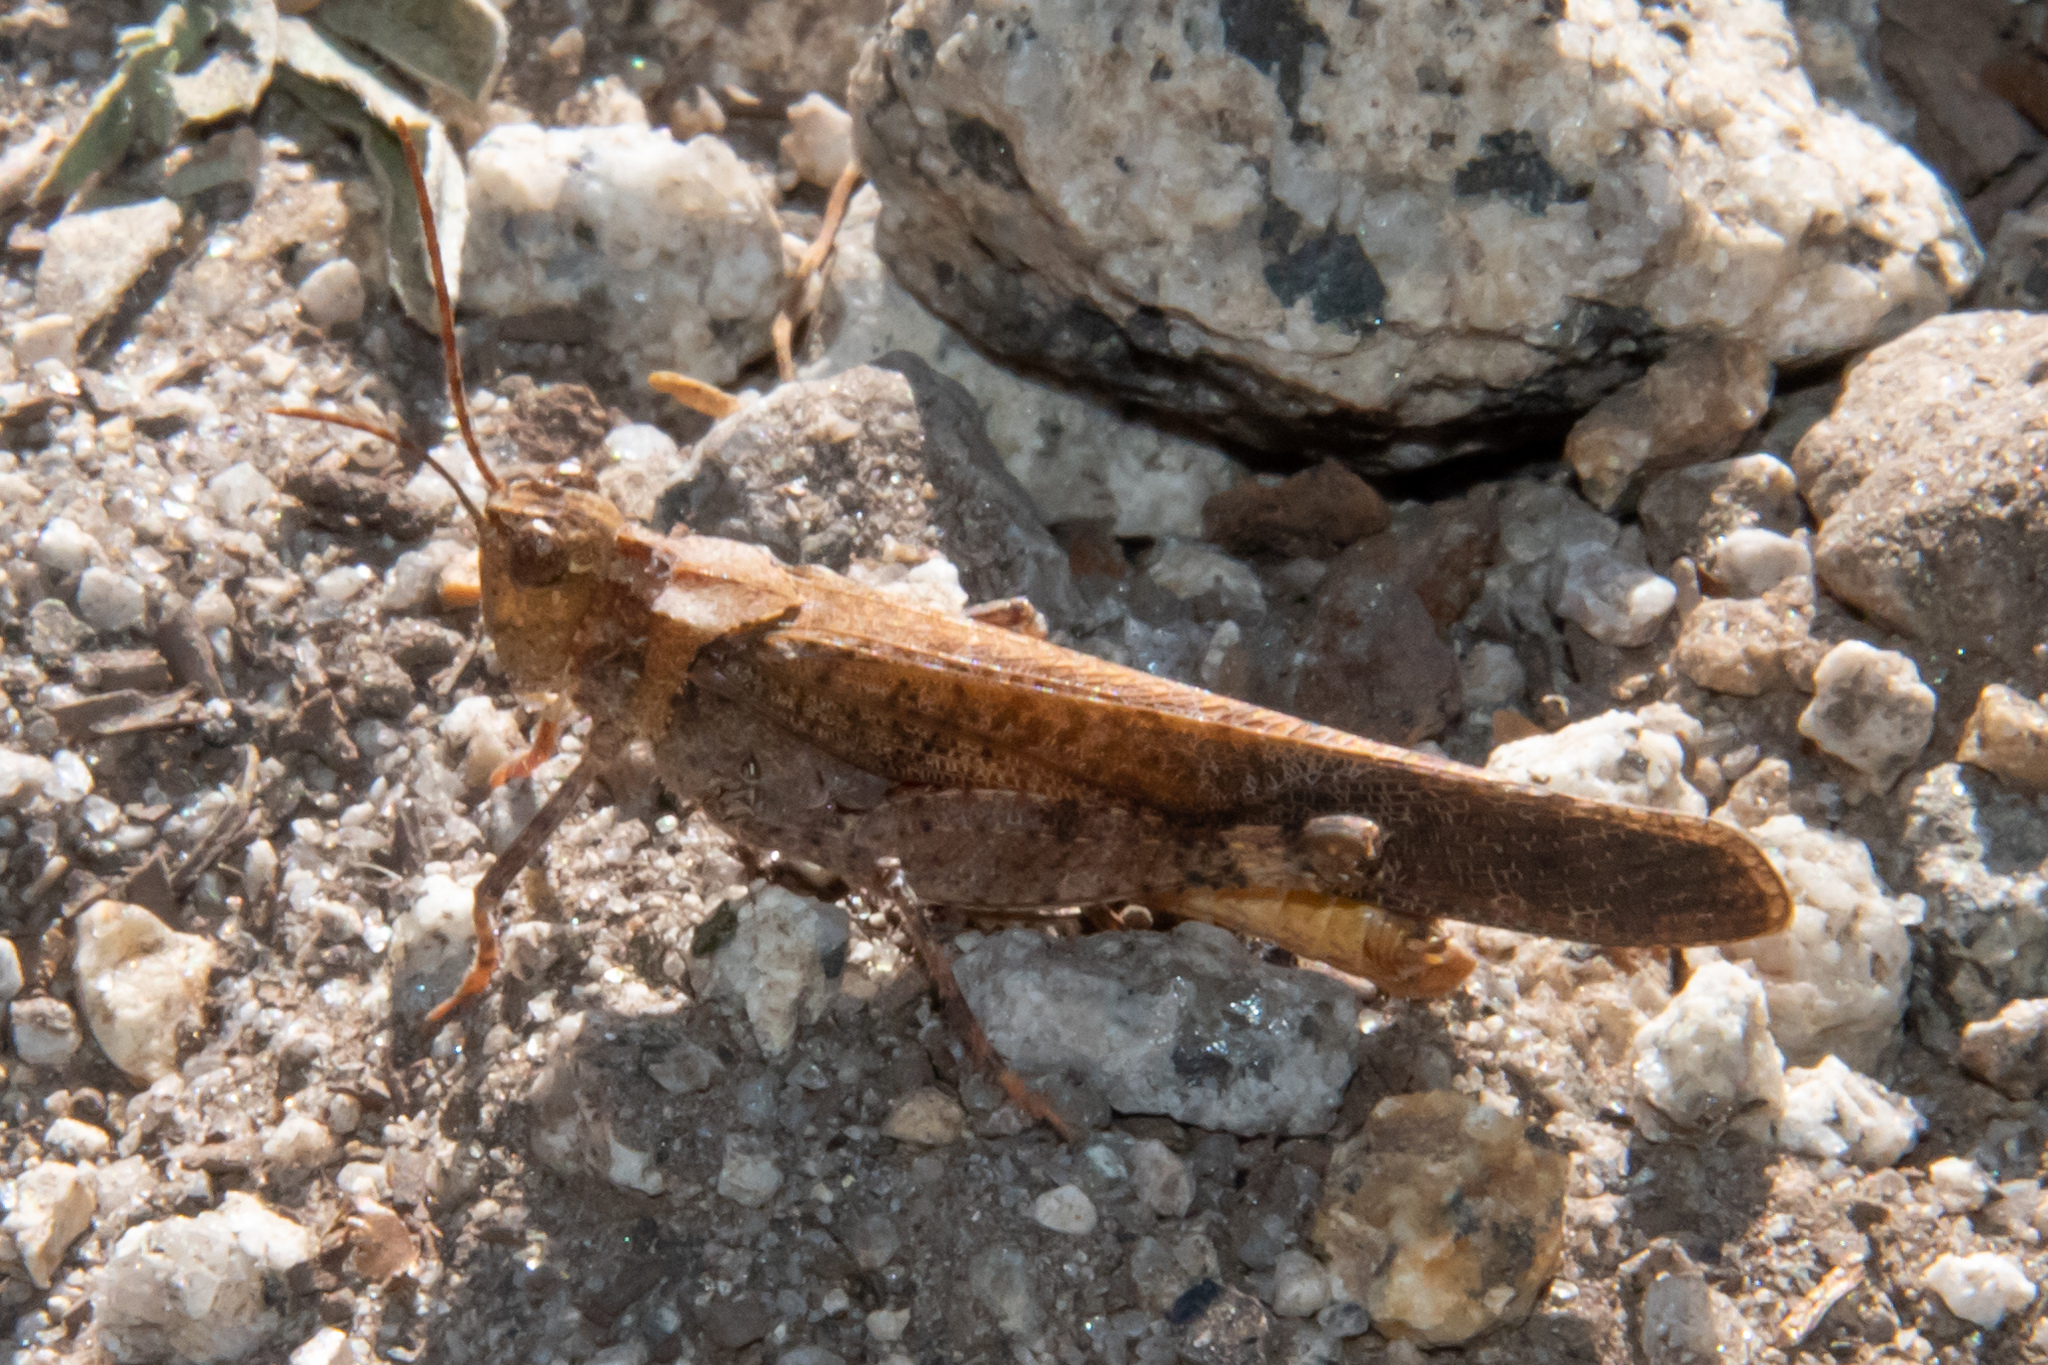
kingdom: Animalia
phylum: Arthropoda
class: Insecta
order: Orthoptera
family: Acrididae
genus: Trimerotropis
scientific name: Trimerotropis verruculata
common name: Crackling forest grasshopper
